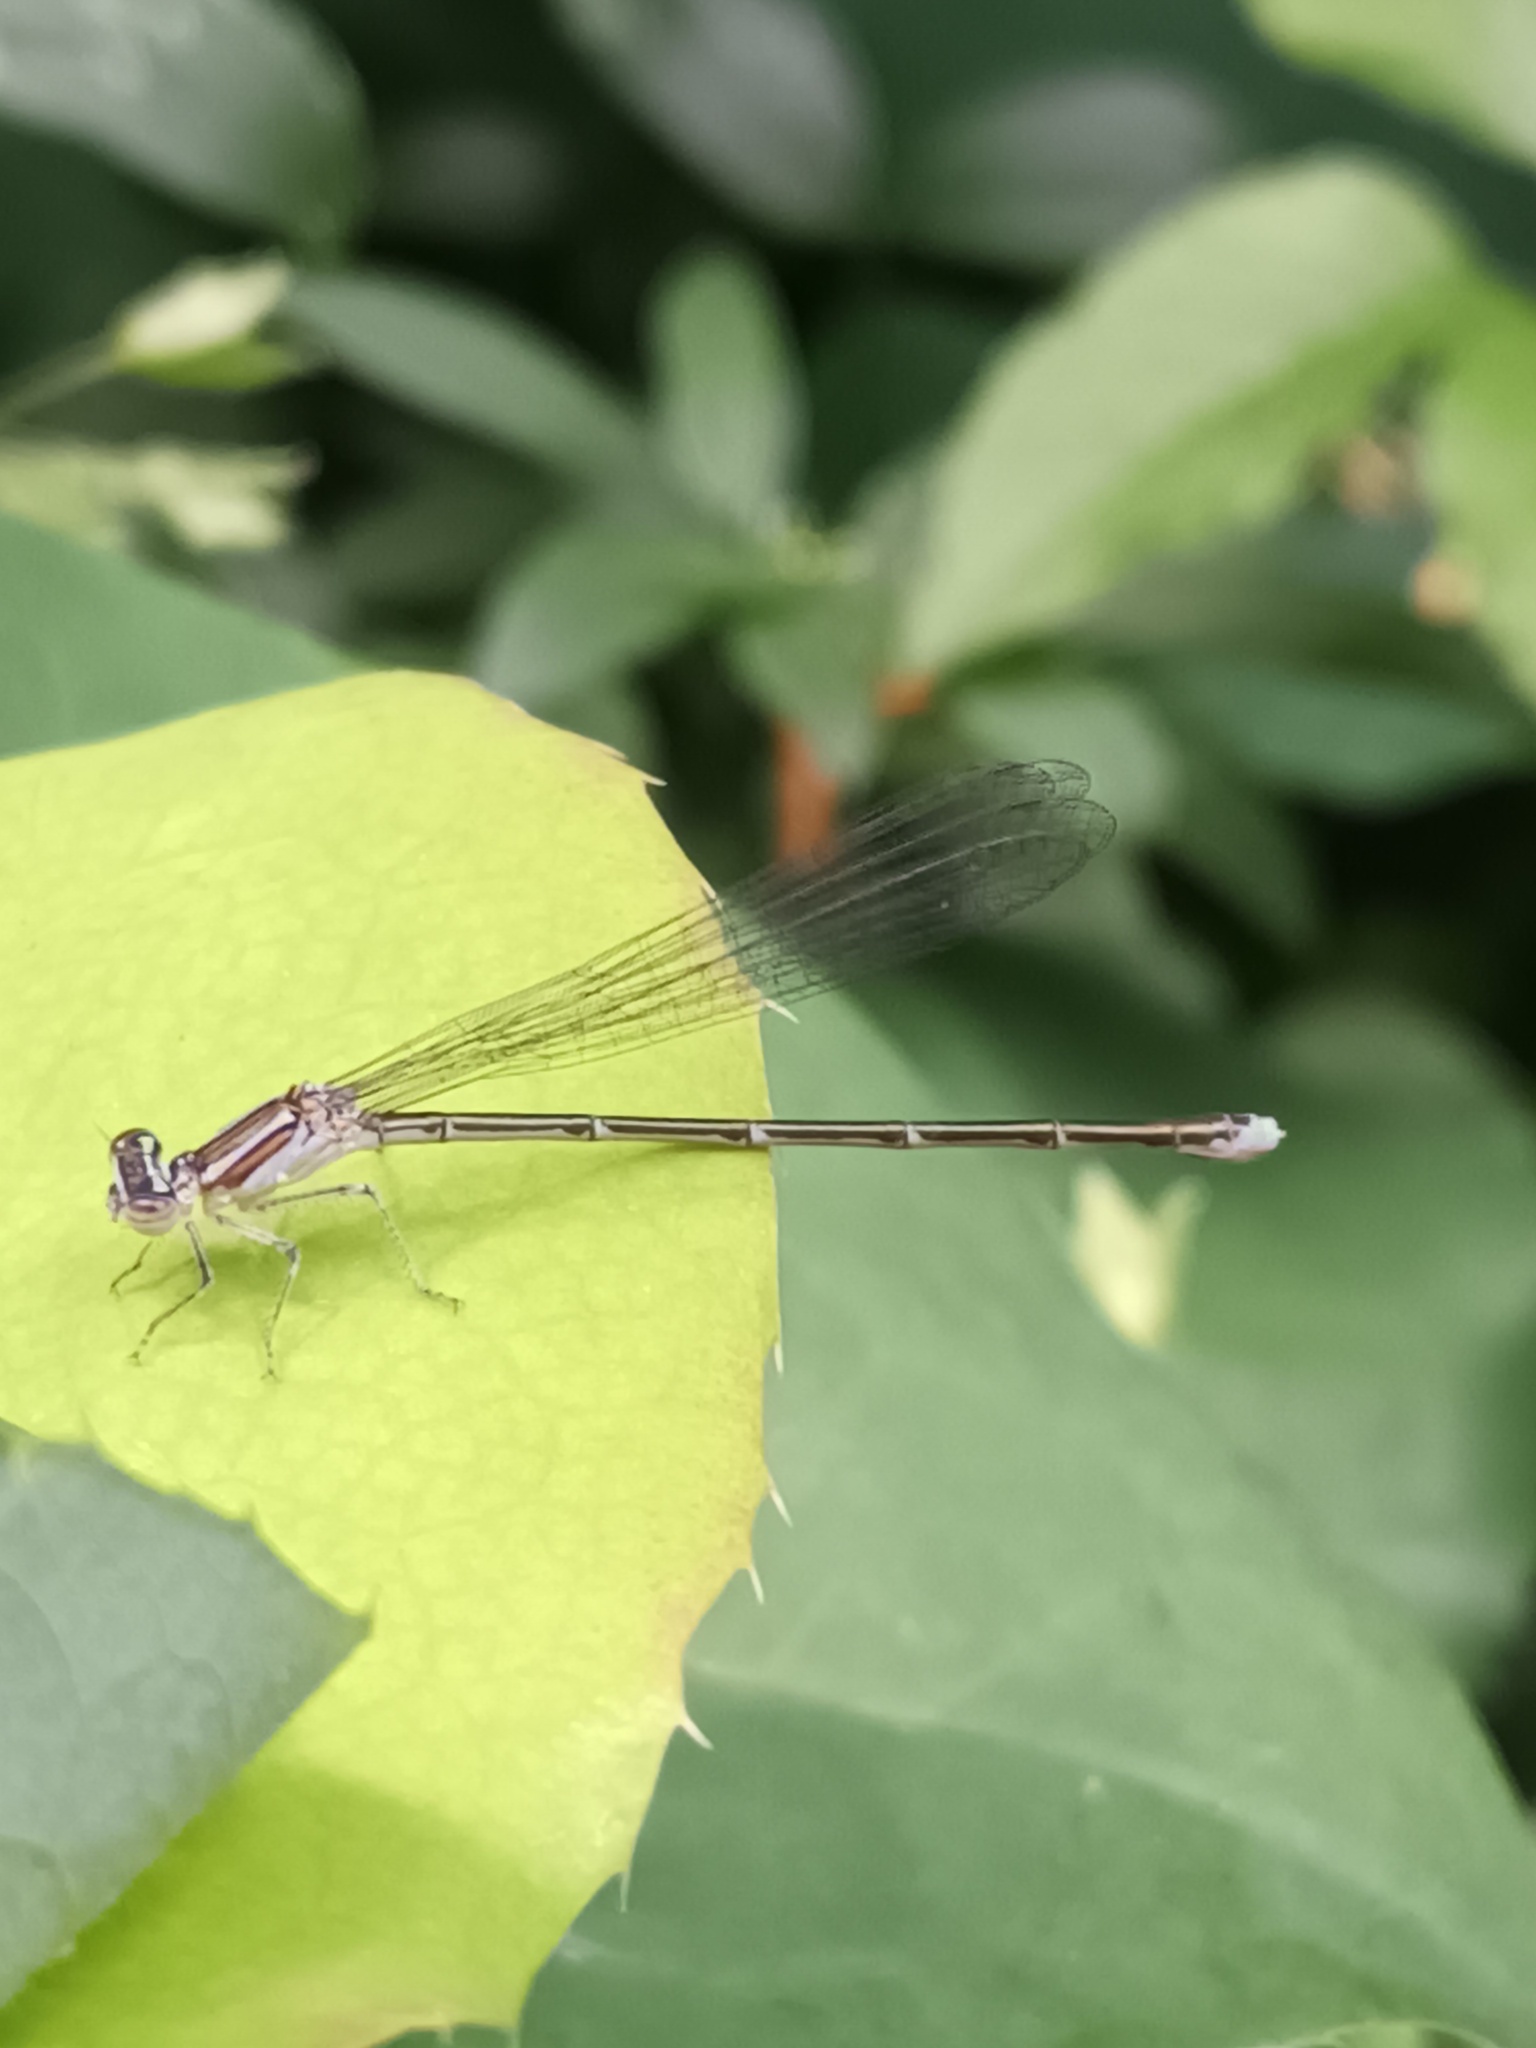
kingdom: Animalia
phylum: Arthropoda
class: Insecta
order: Odonata
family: Coenagrionidae
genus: Enallagma
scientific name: Enallagma exsulans
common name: Stream bluet
